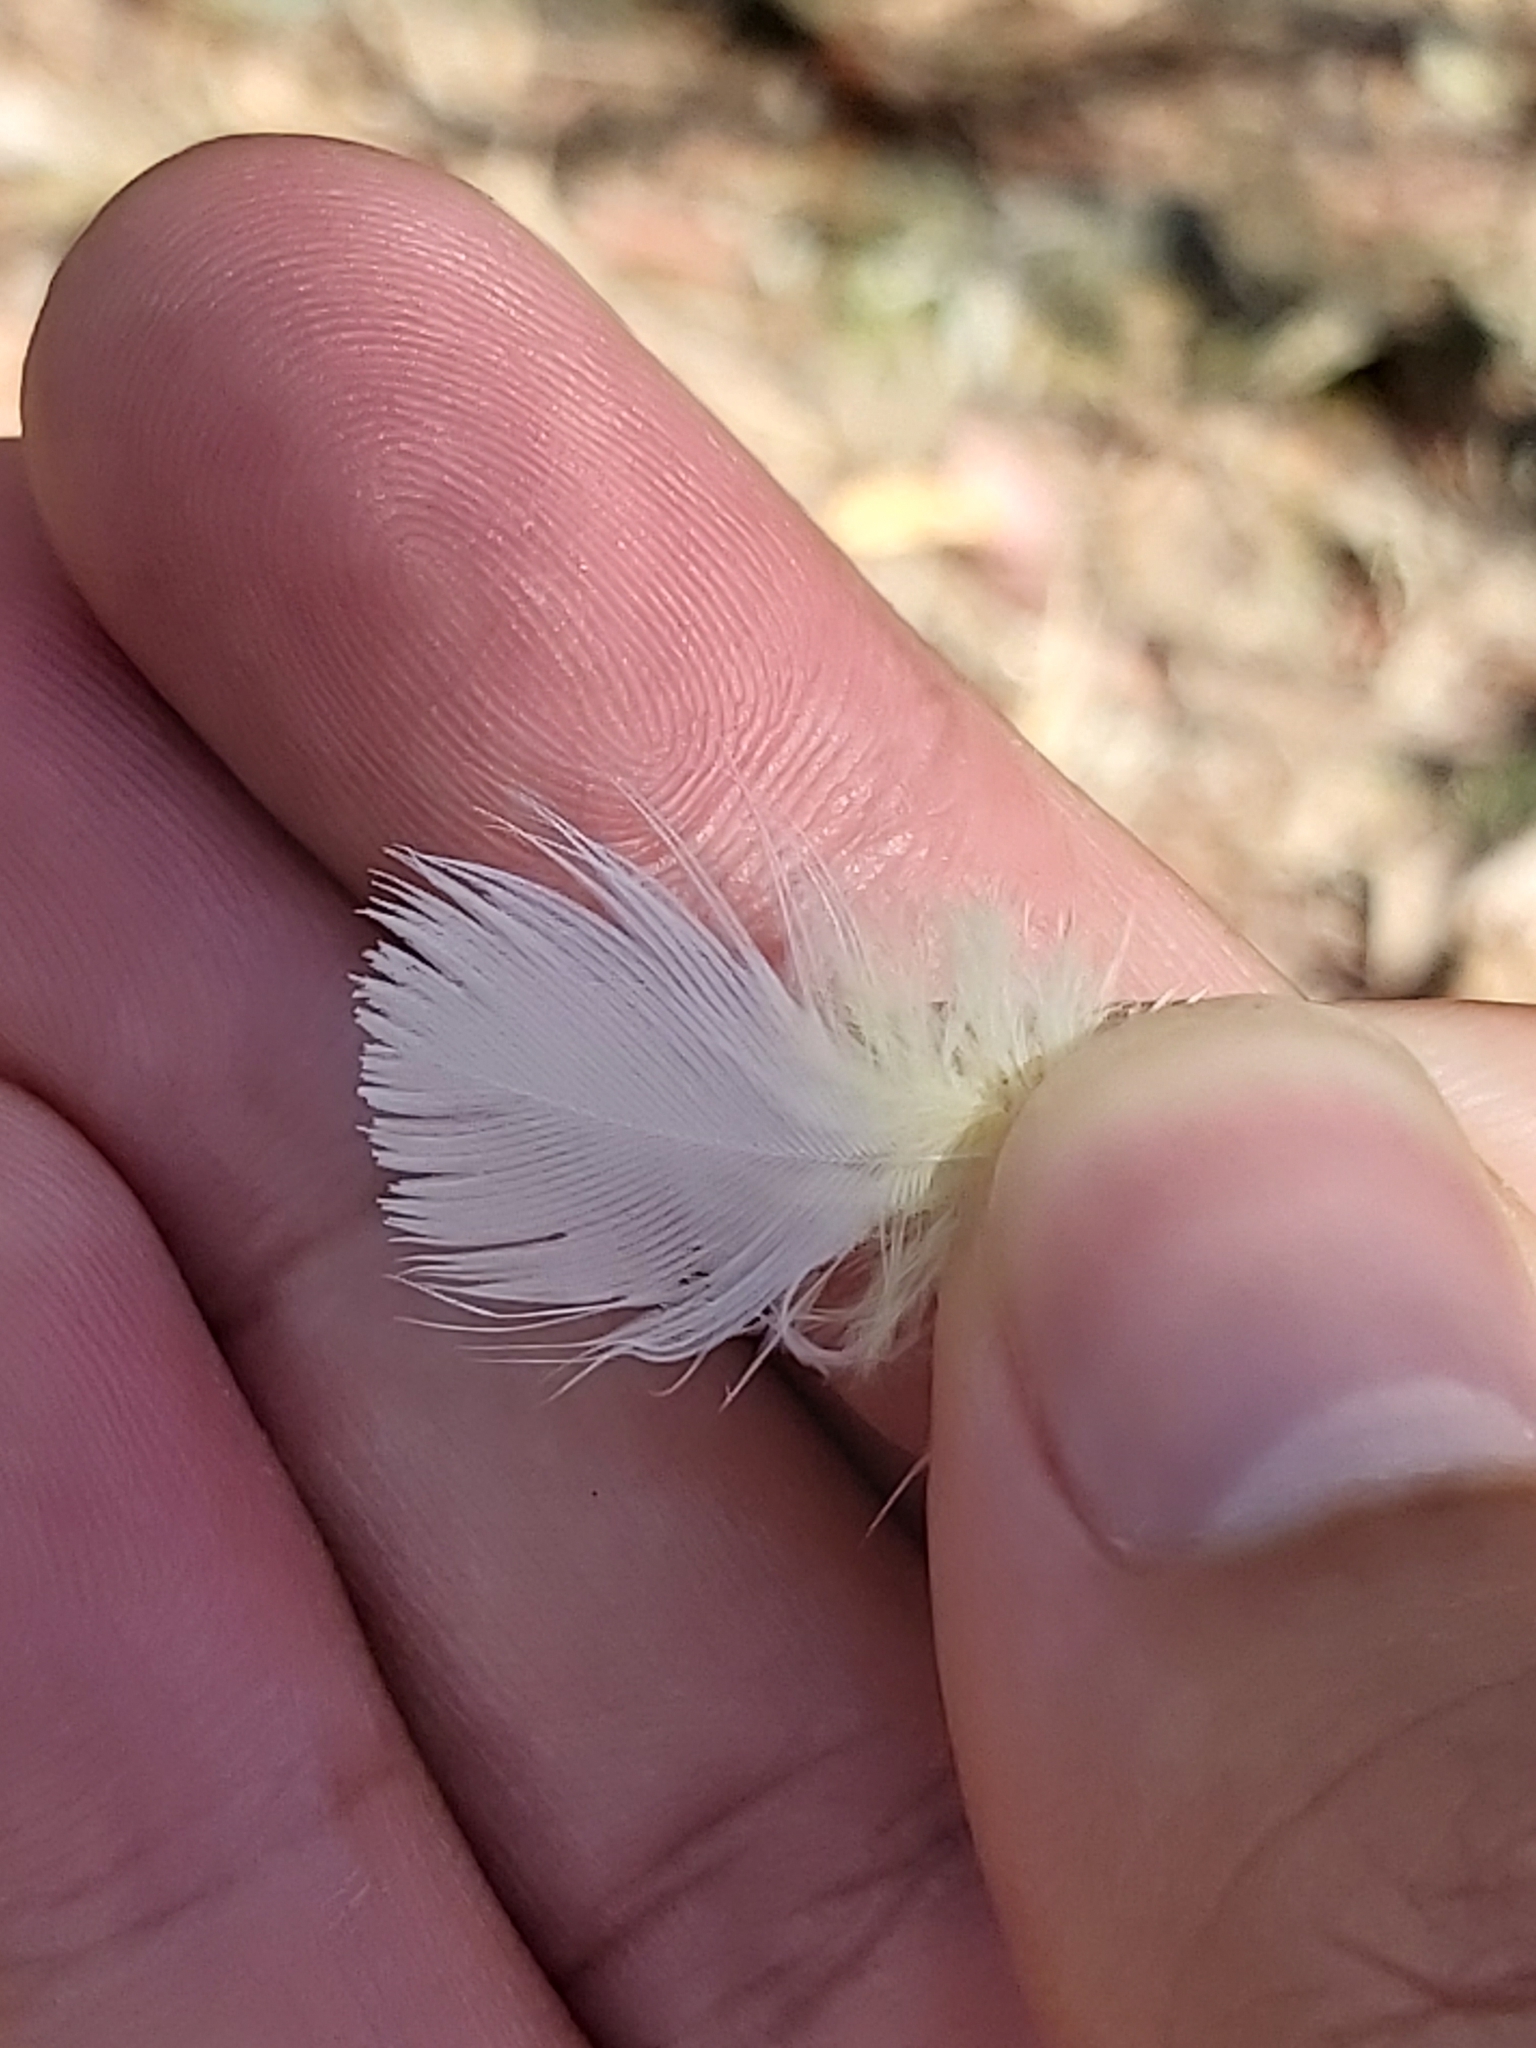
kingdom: Animalia
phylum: Chordata
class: Aves
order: Psittaciformes
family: Psittacidae
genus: Cacatua
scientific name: Cacatua galerita
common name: Sulphur-crested cockatoo
